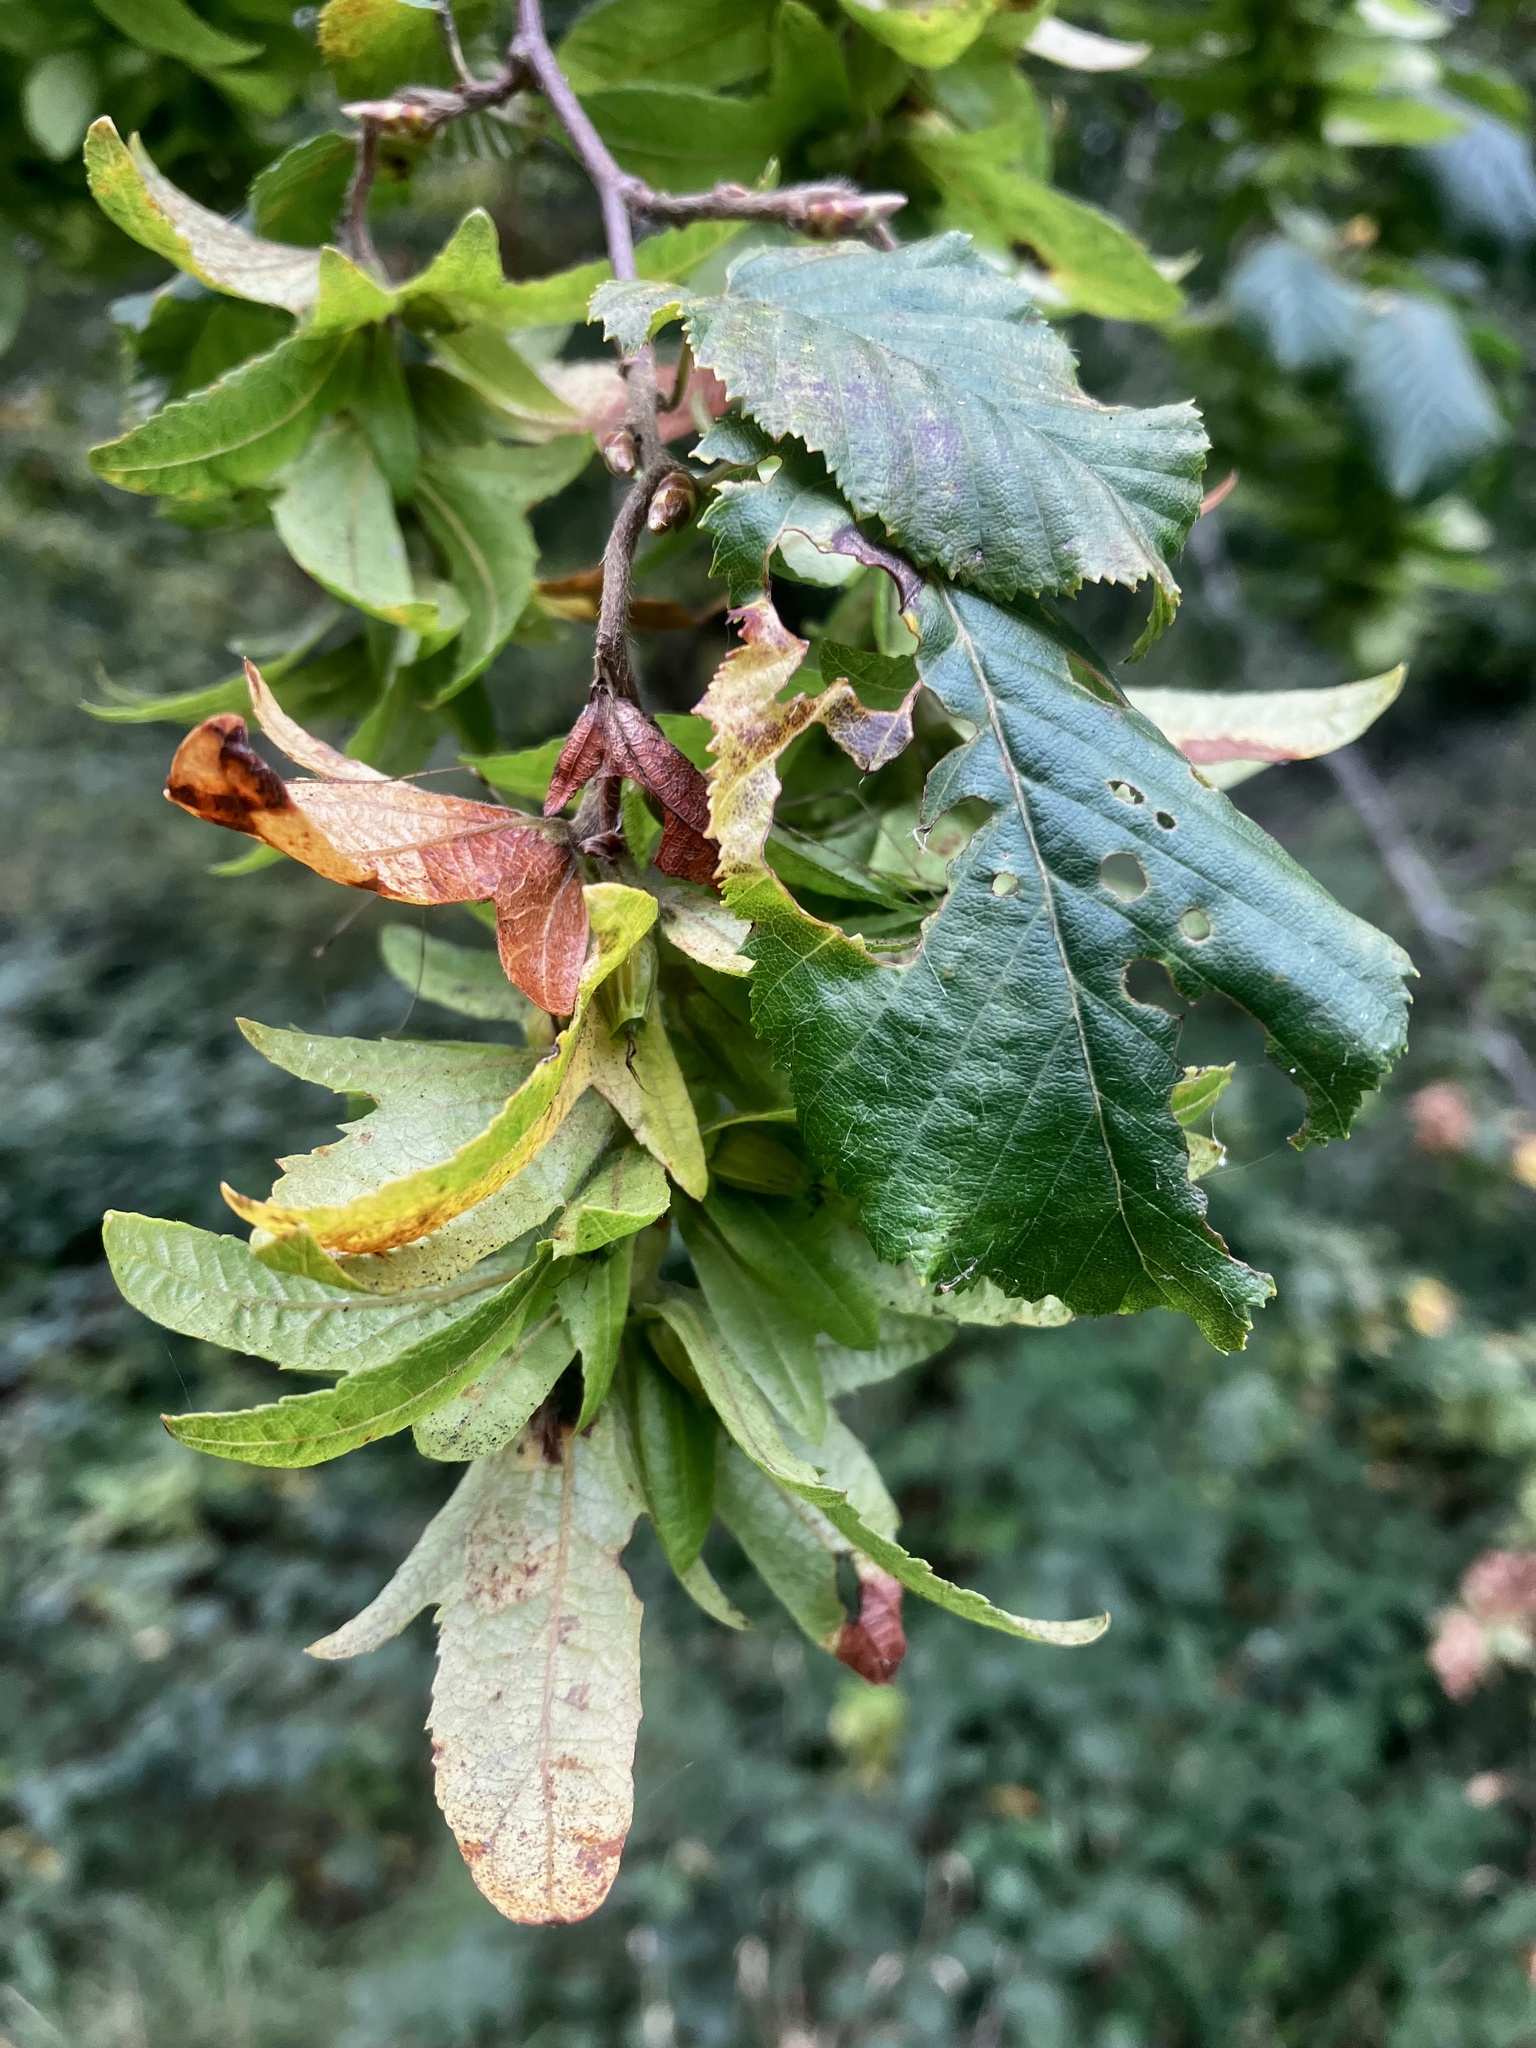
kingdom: Plantae
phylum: Tracheophyta
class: Magnoliopsida
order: Fagales
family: Betulaceae
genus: Carpinus
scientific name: Carpinus betulus
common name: Hornbeam
